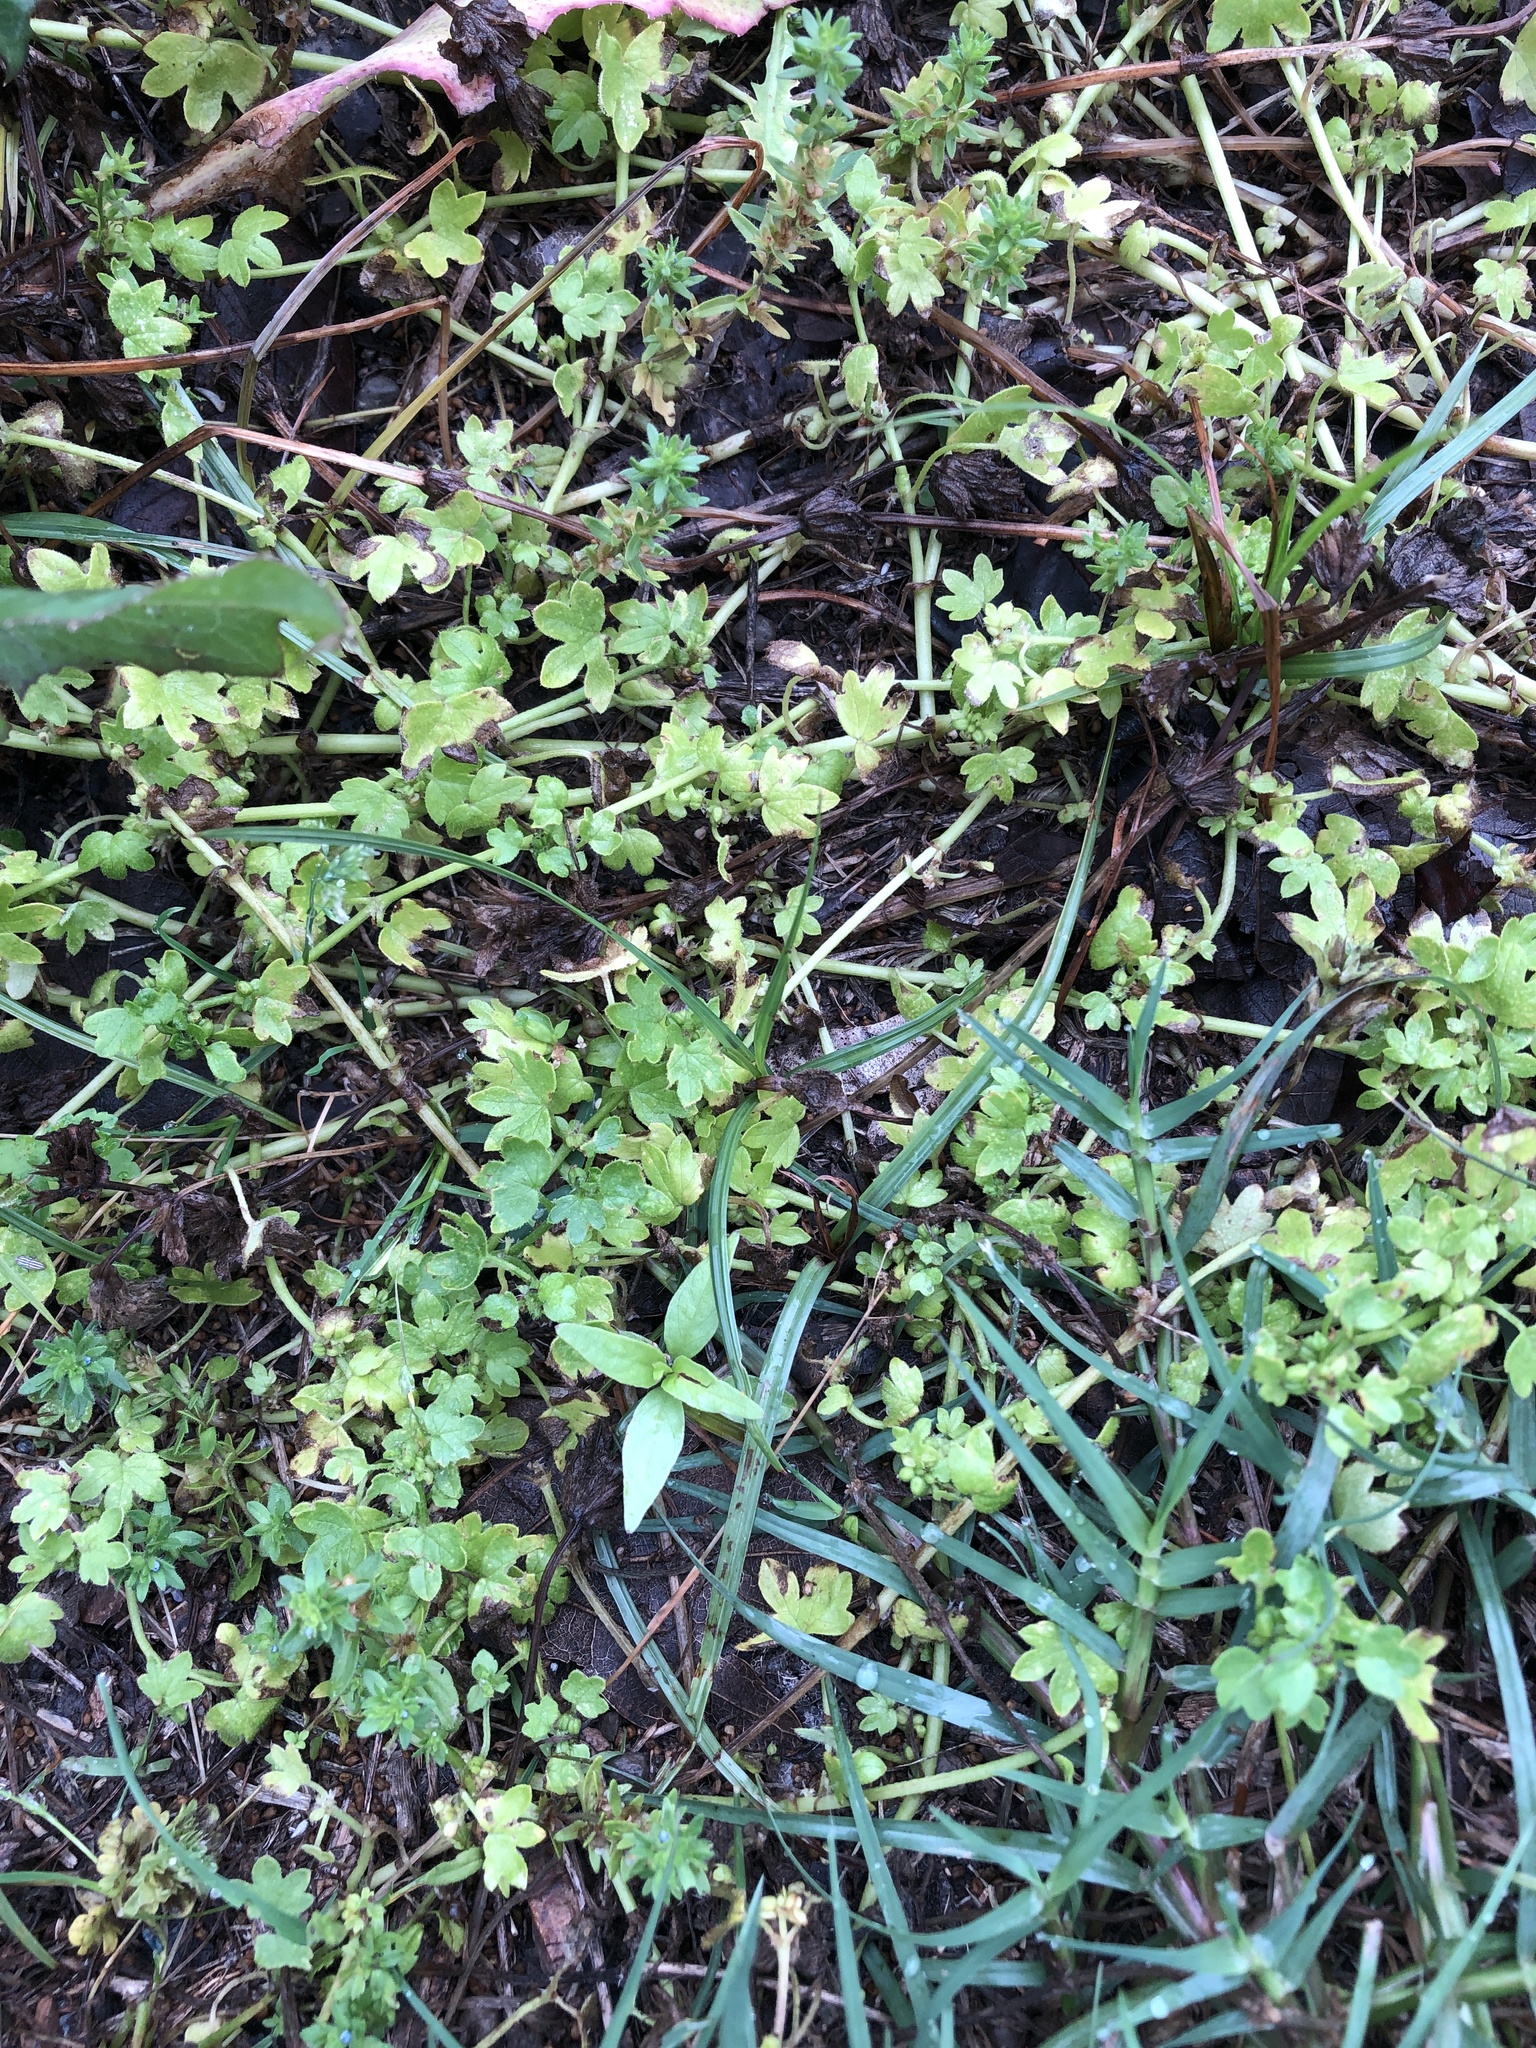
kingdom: Plantae
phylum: Tracheophyta
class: Magnoliopsida
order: Apiales
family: Apiaceae
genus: Bowlesia
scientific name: Bowlesia incana
